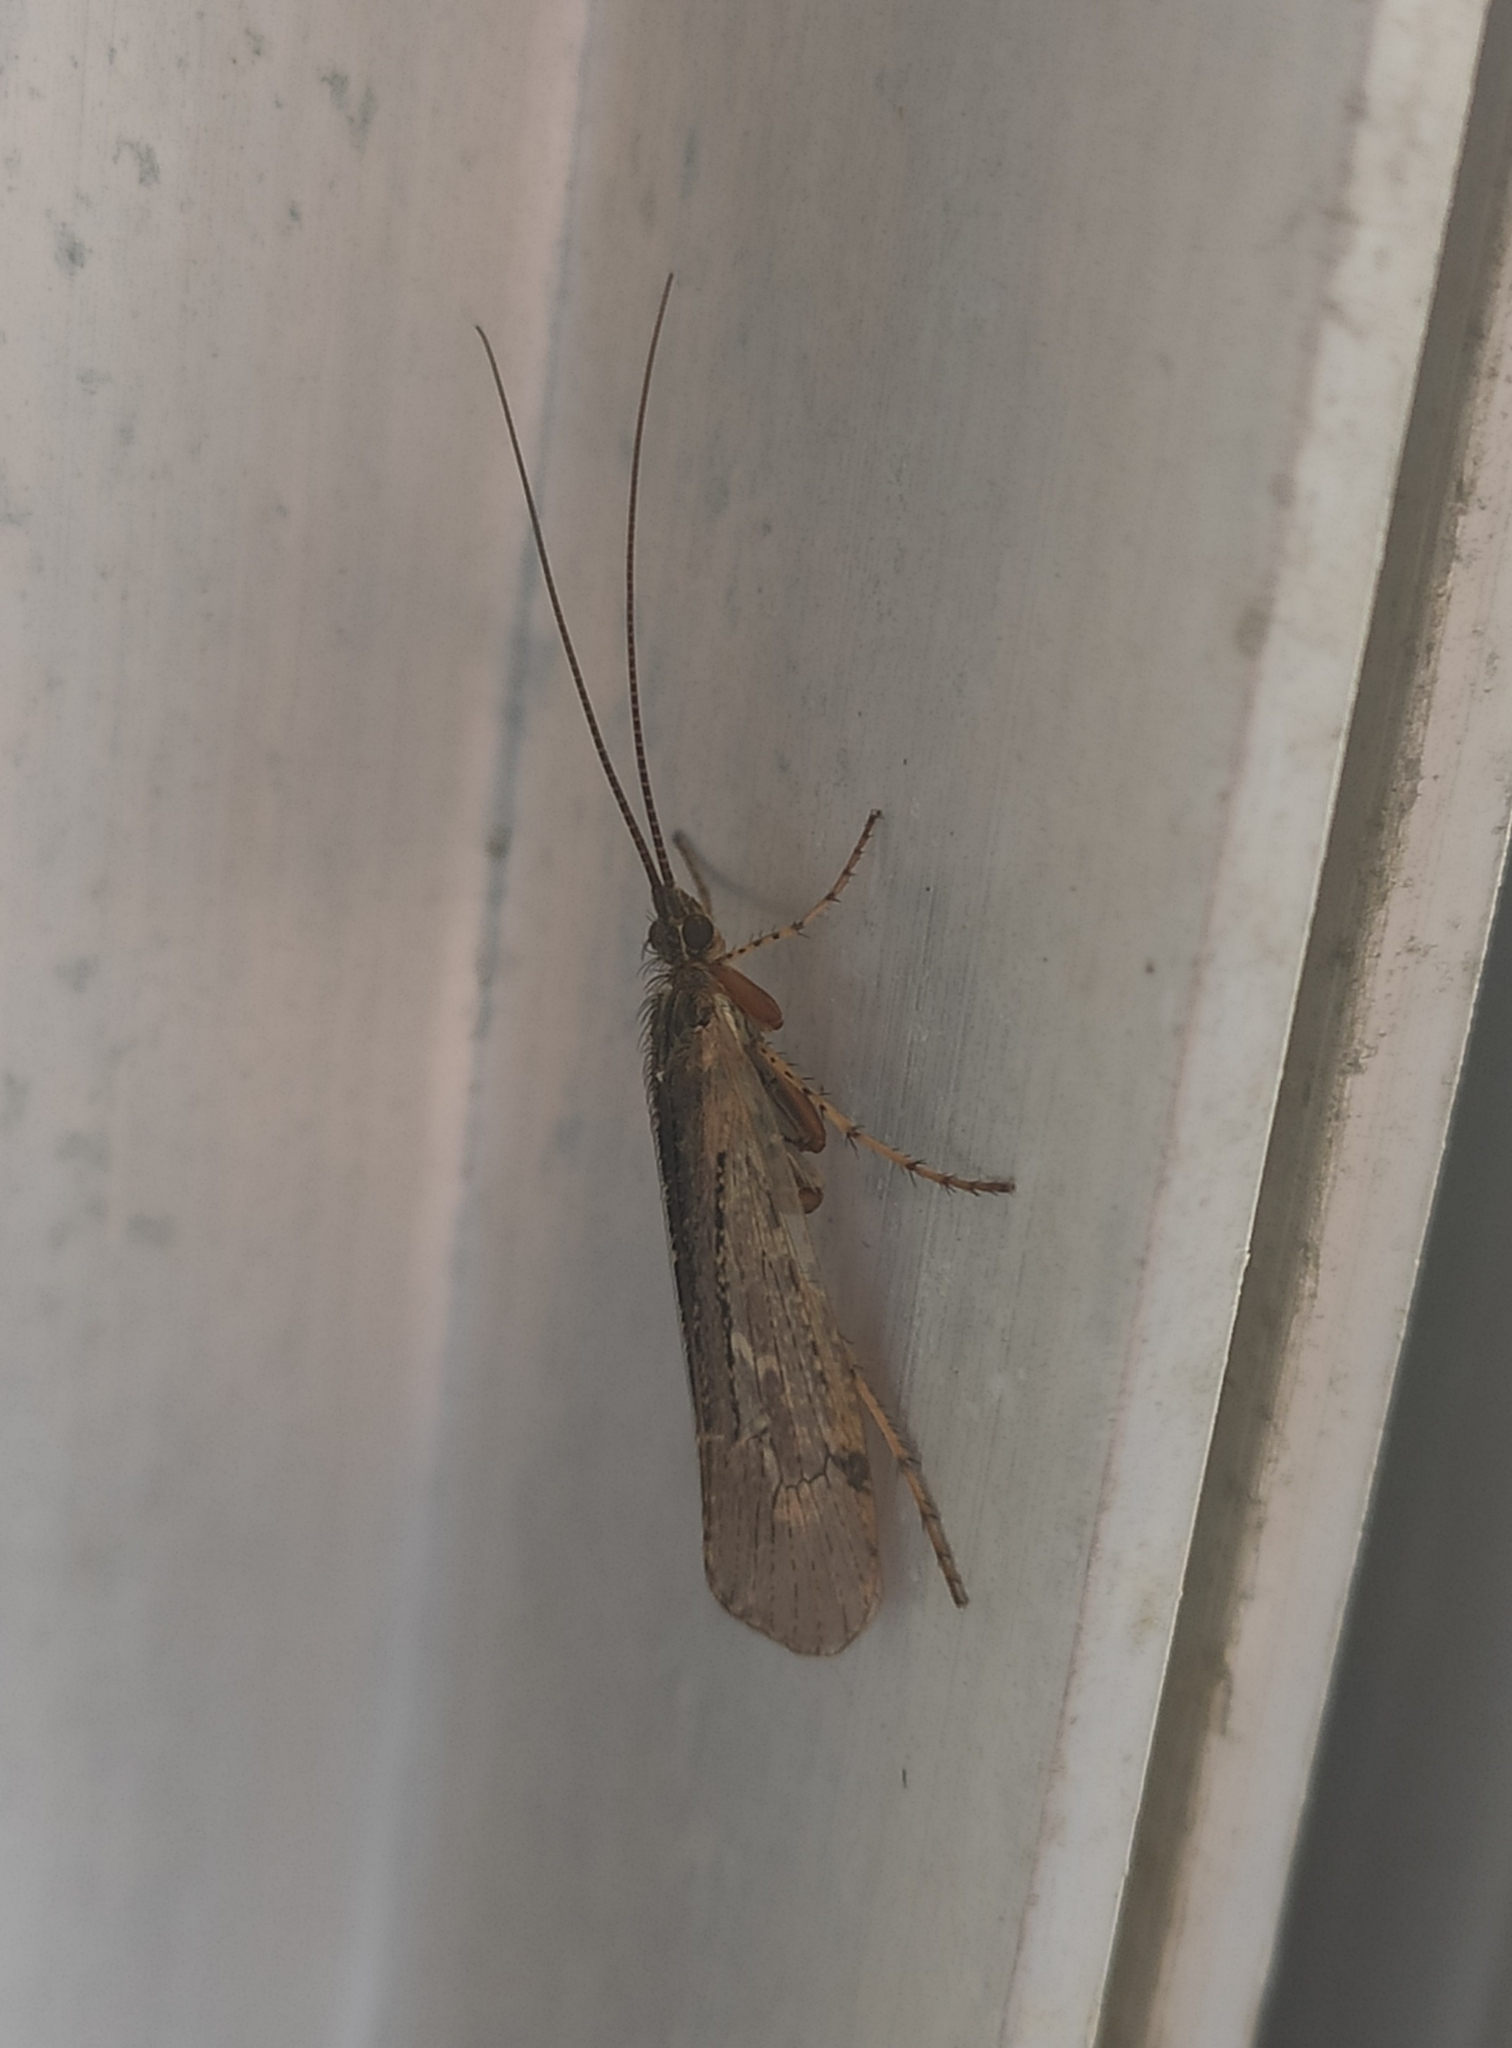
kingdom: Animalia
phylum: Arthropoda
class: Insecta
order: Trichoptera
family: Limnephilidae
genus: Limnephilus
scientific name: Limnephilus affinis
